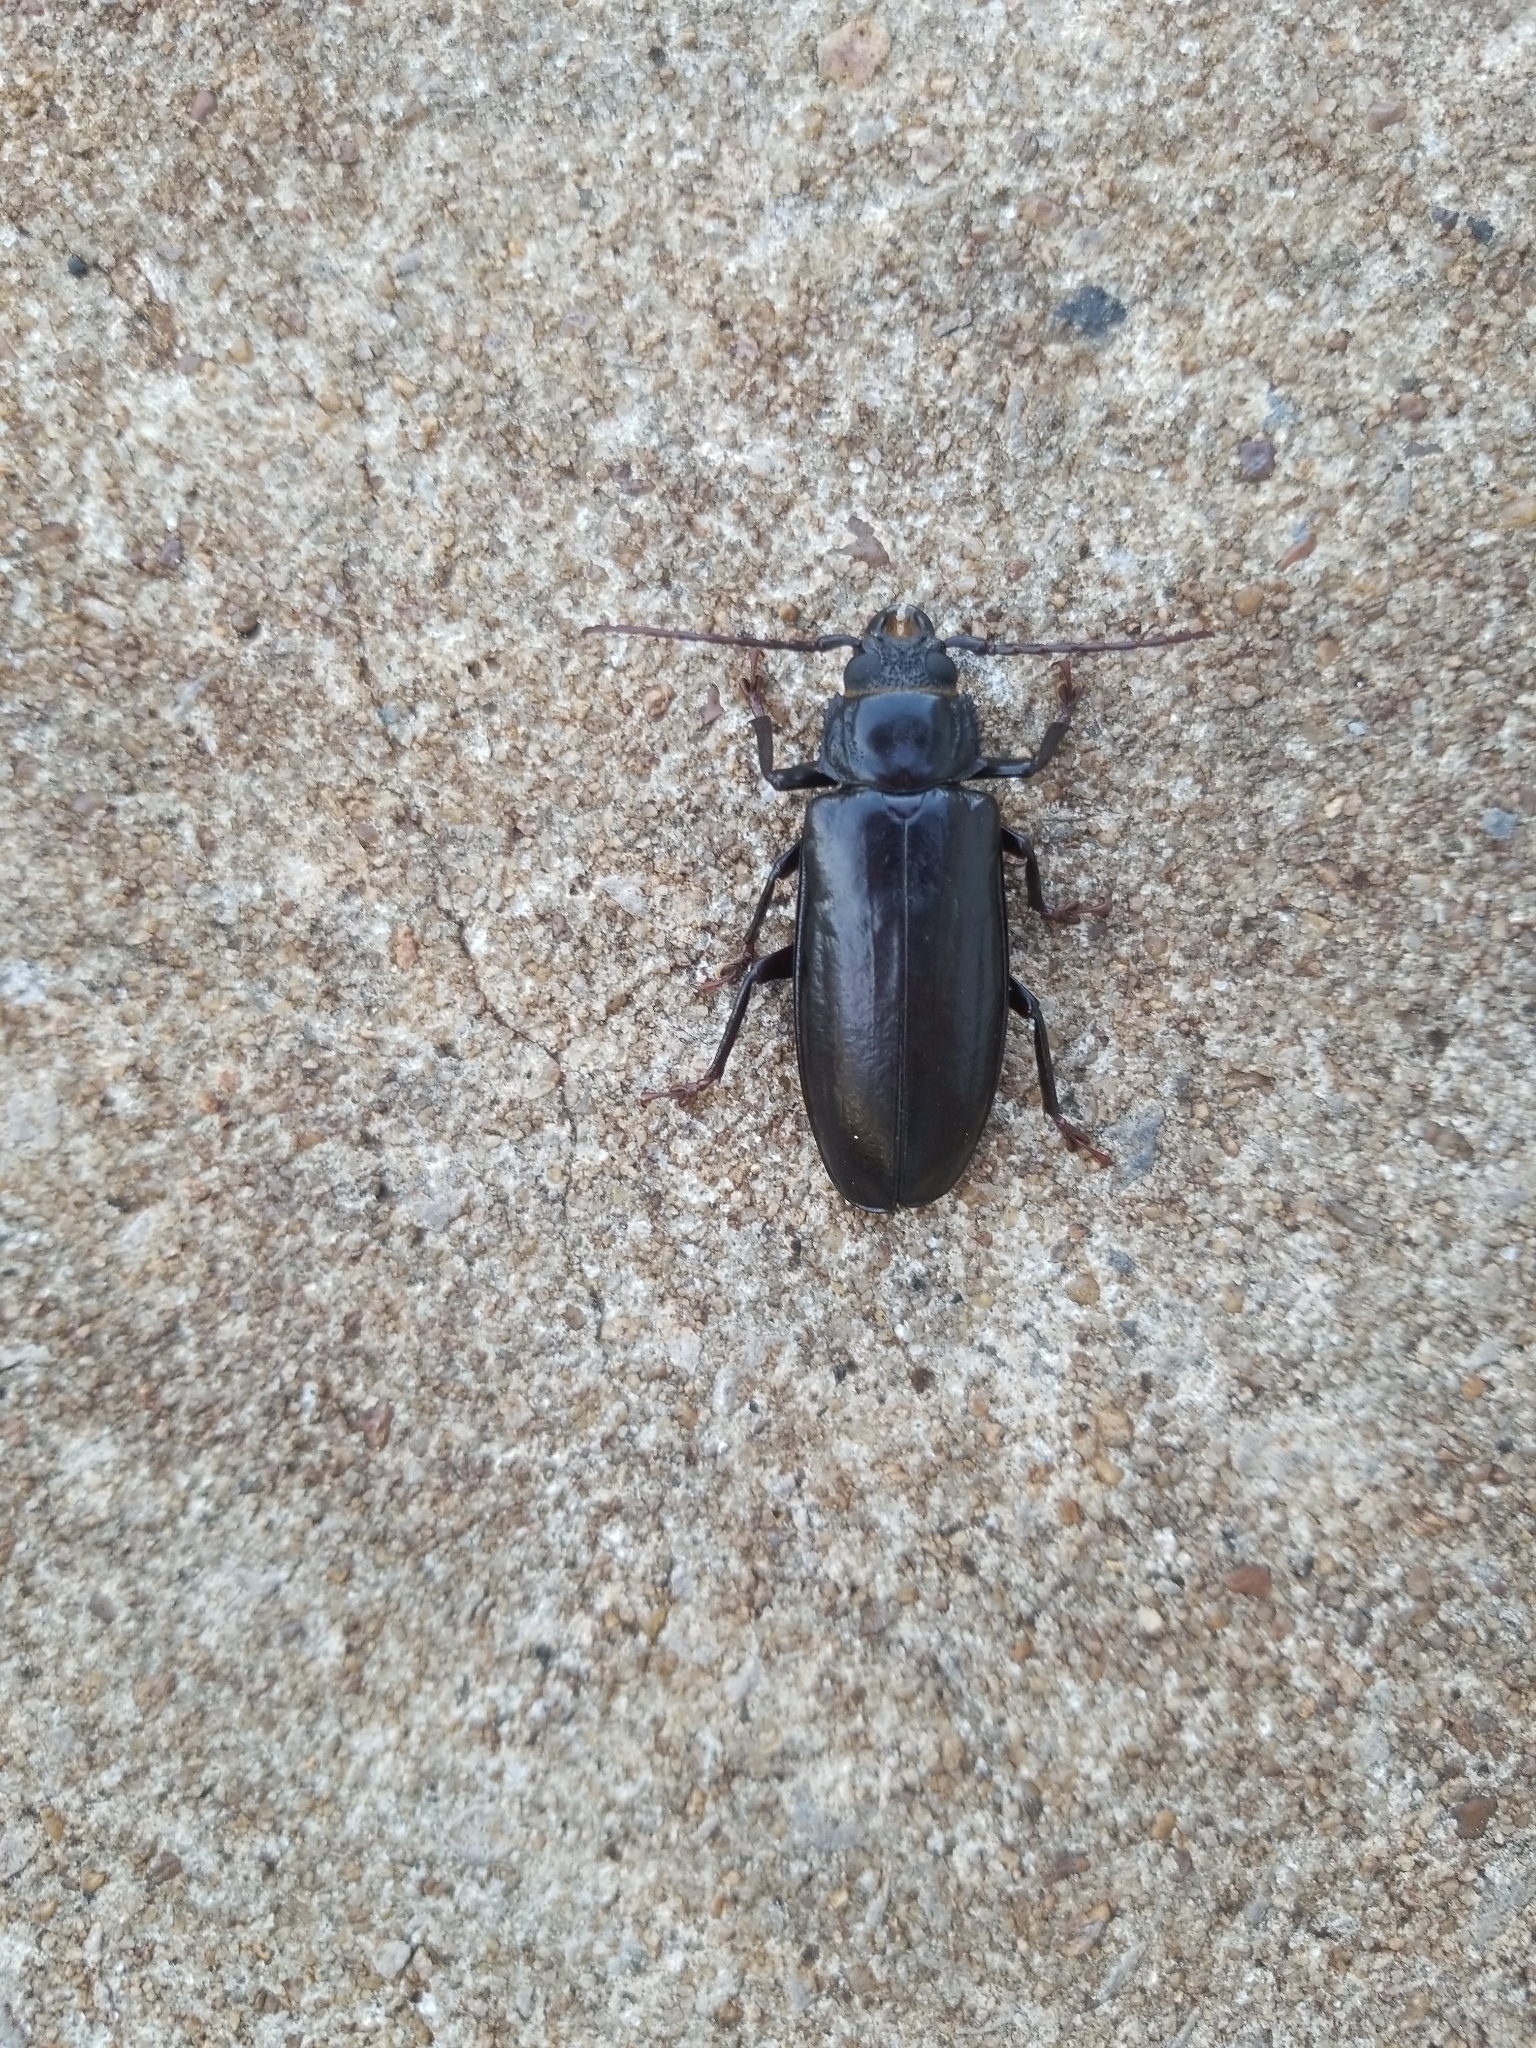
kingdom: Animalia
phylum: Arthropoda
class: Insecta
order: Coleoptera
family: Cerambycidae
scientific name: Cerambycidae
